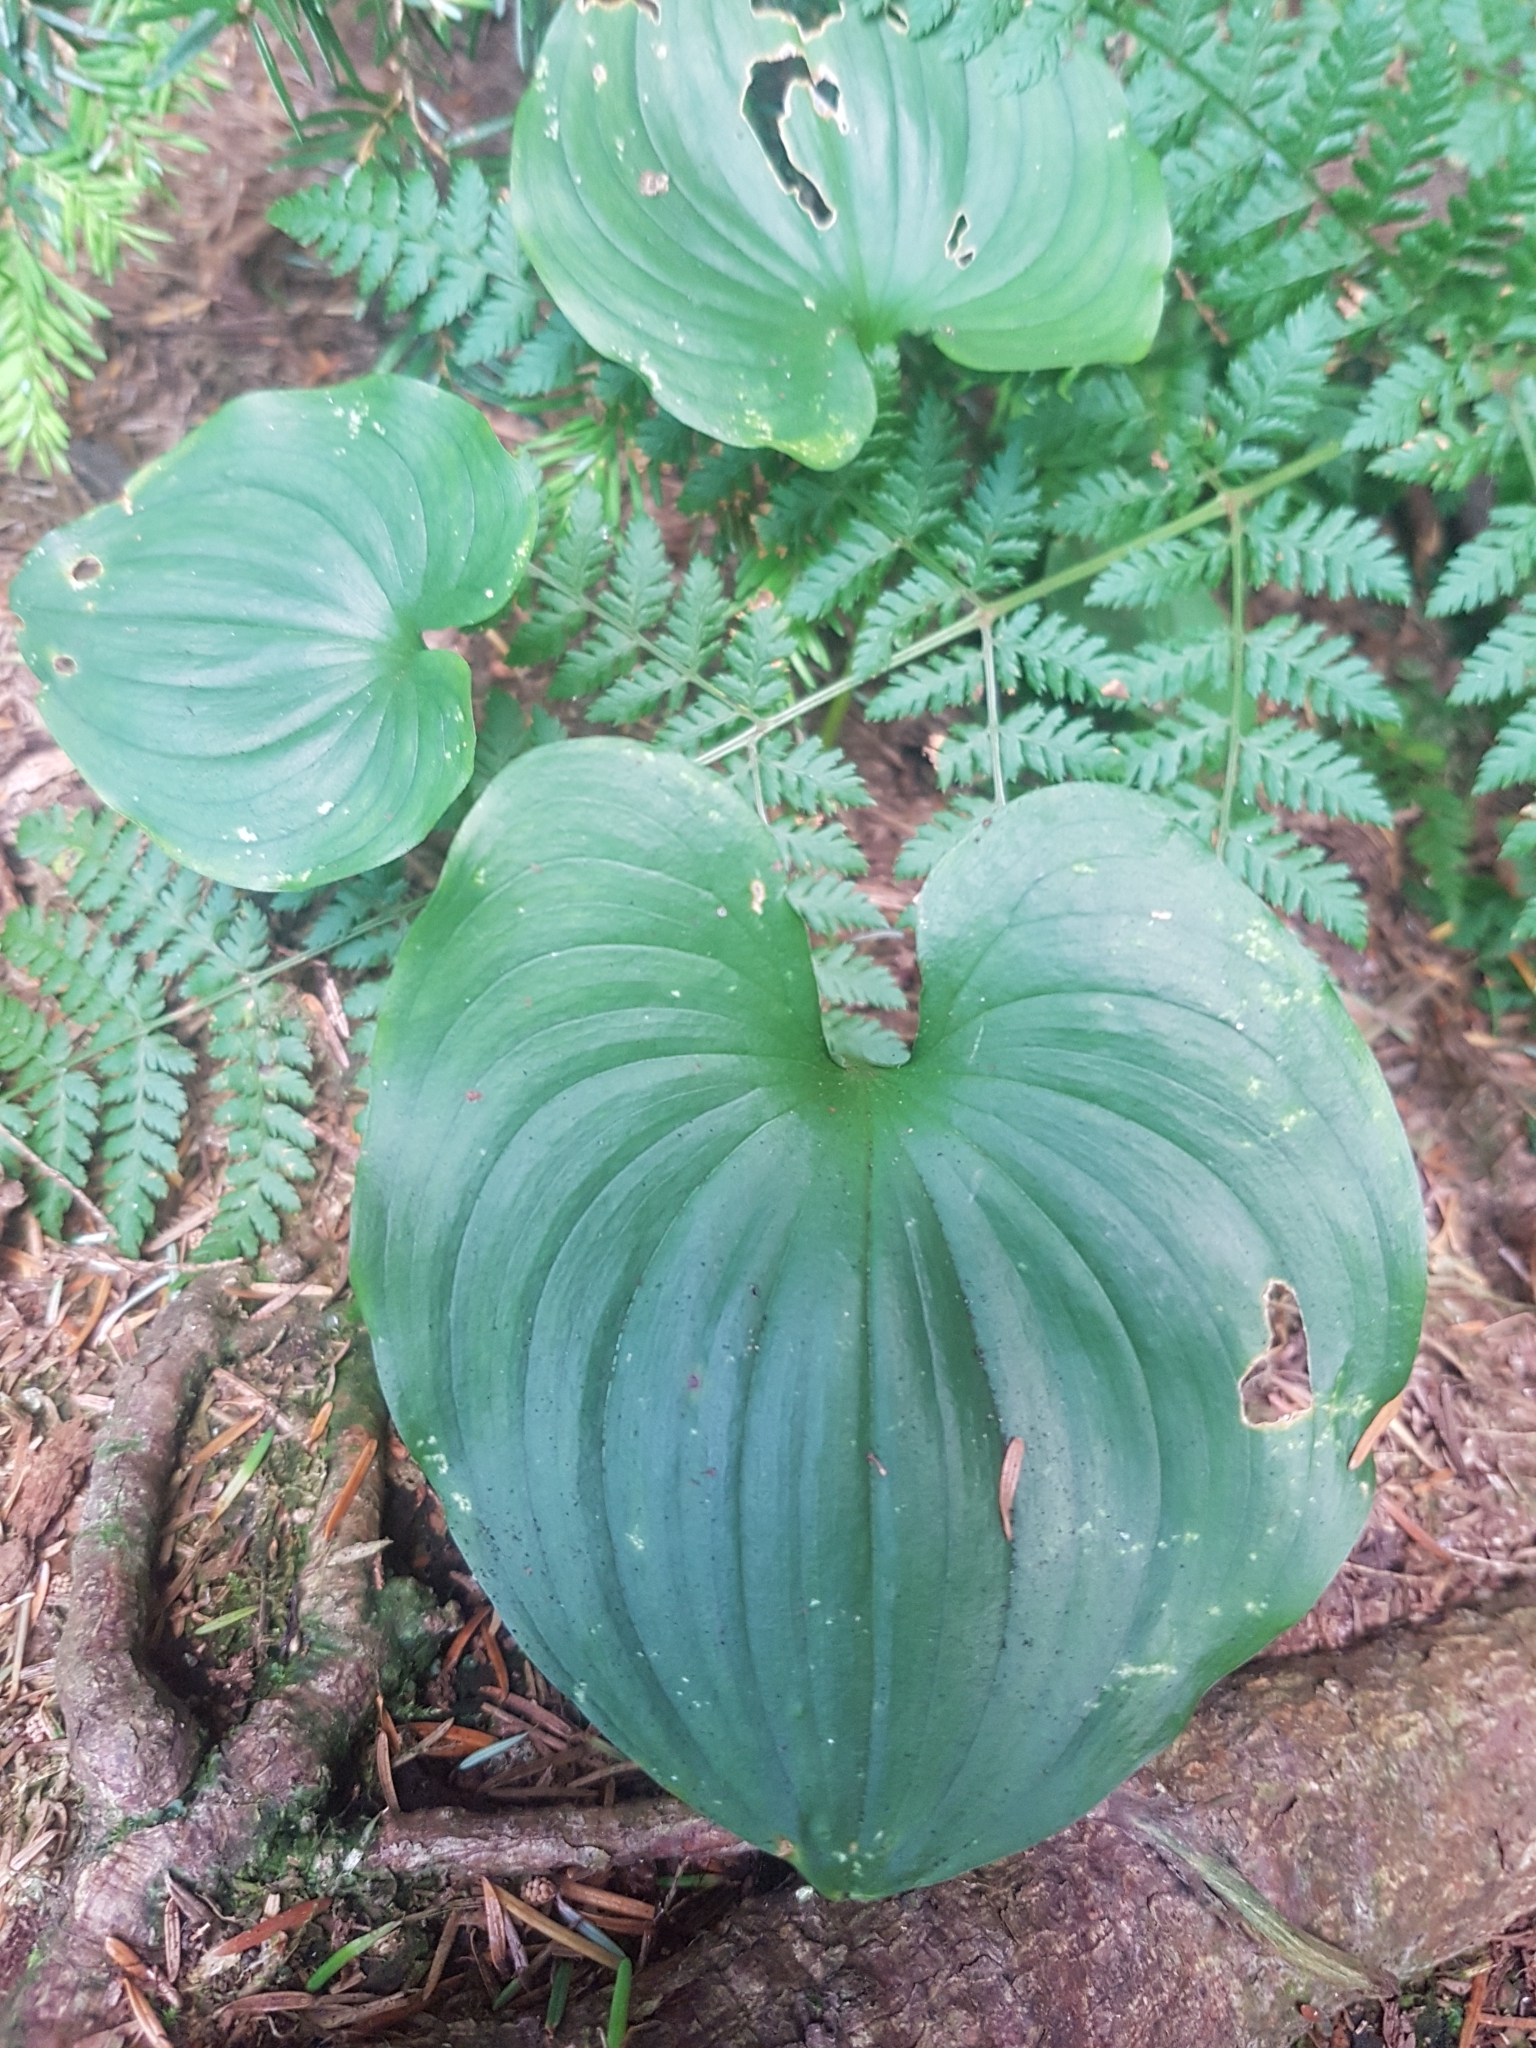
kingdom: Plantae
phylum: Tracheophyta
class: Liliopsida
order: Asparagales
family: Asparagaceae
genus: Maianthemum
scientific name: Maianthemum dilatatum
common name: False lily-of-the-valley
